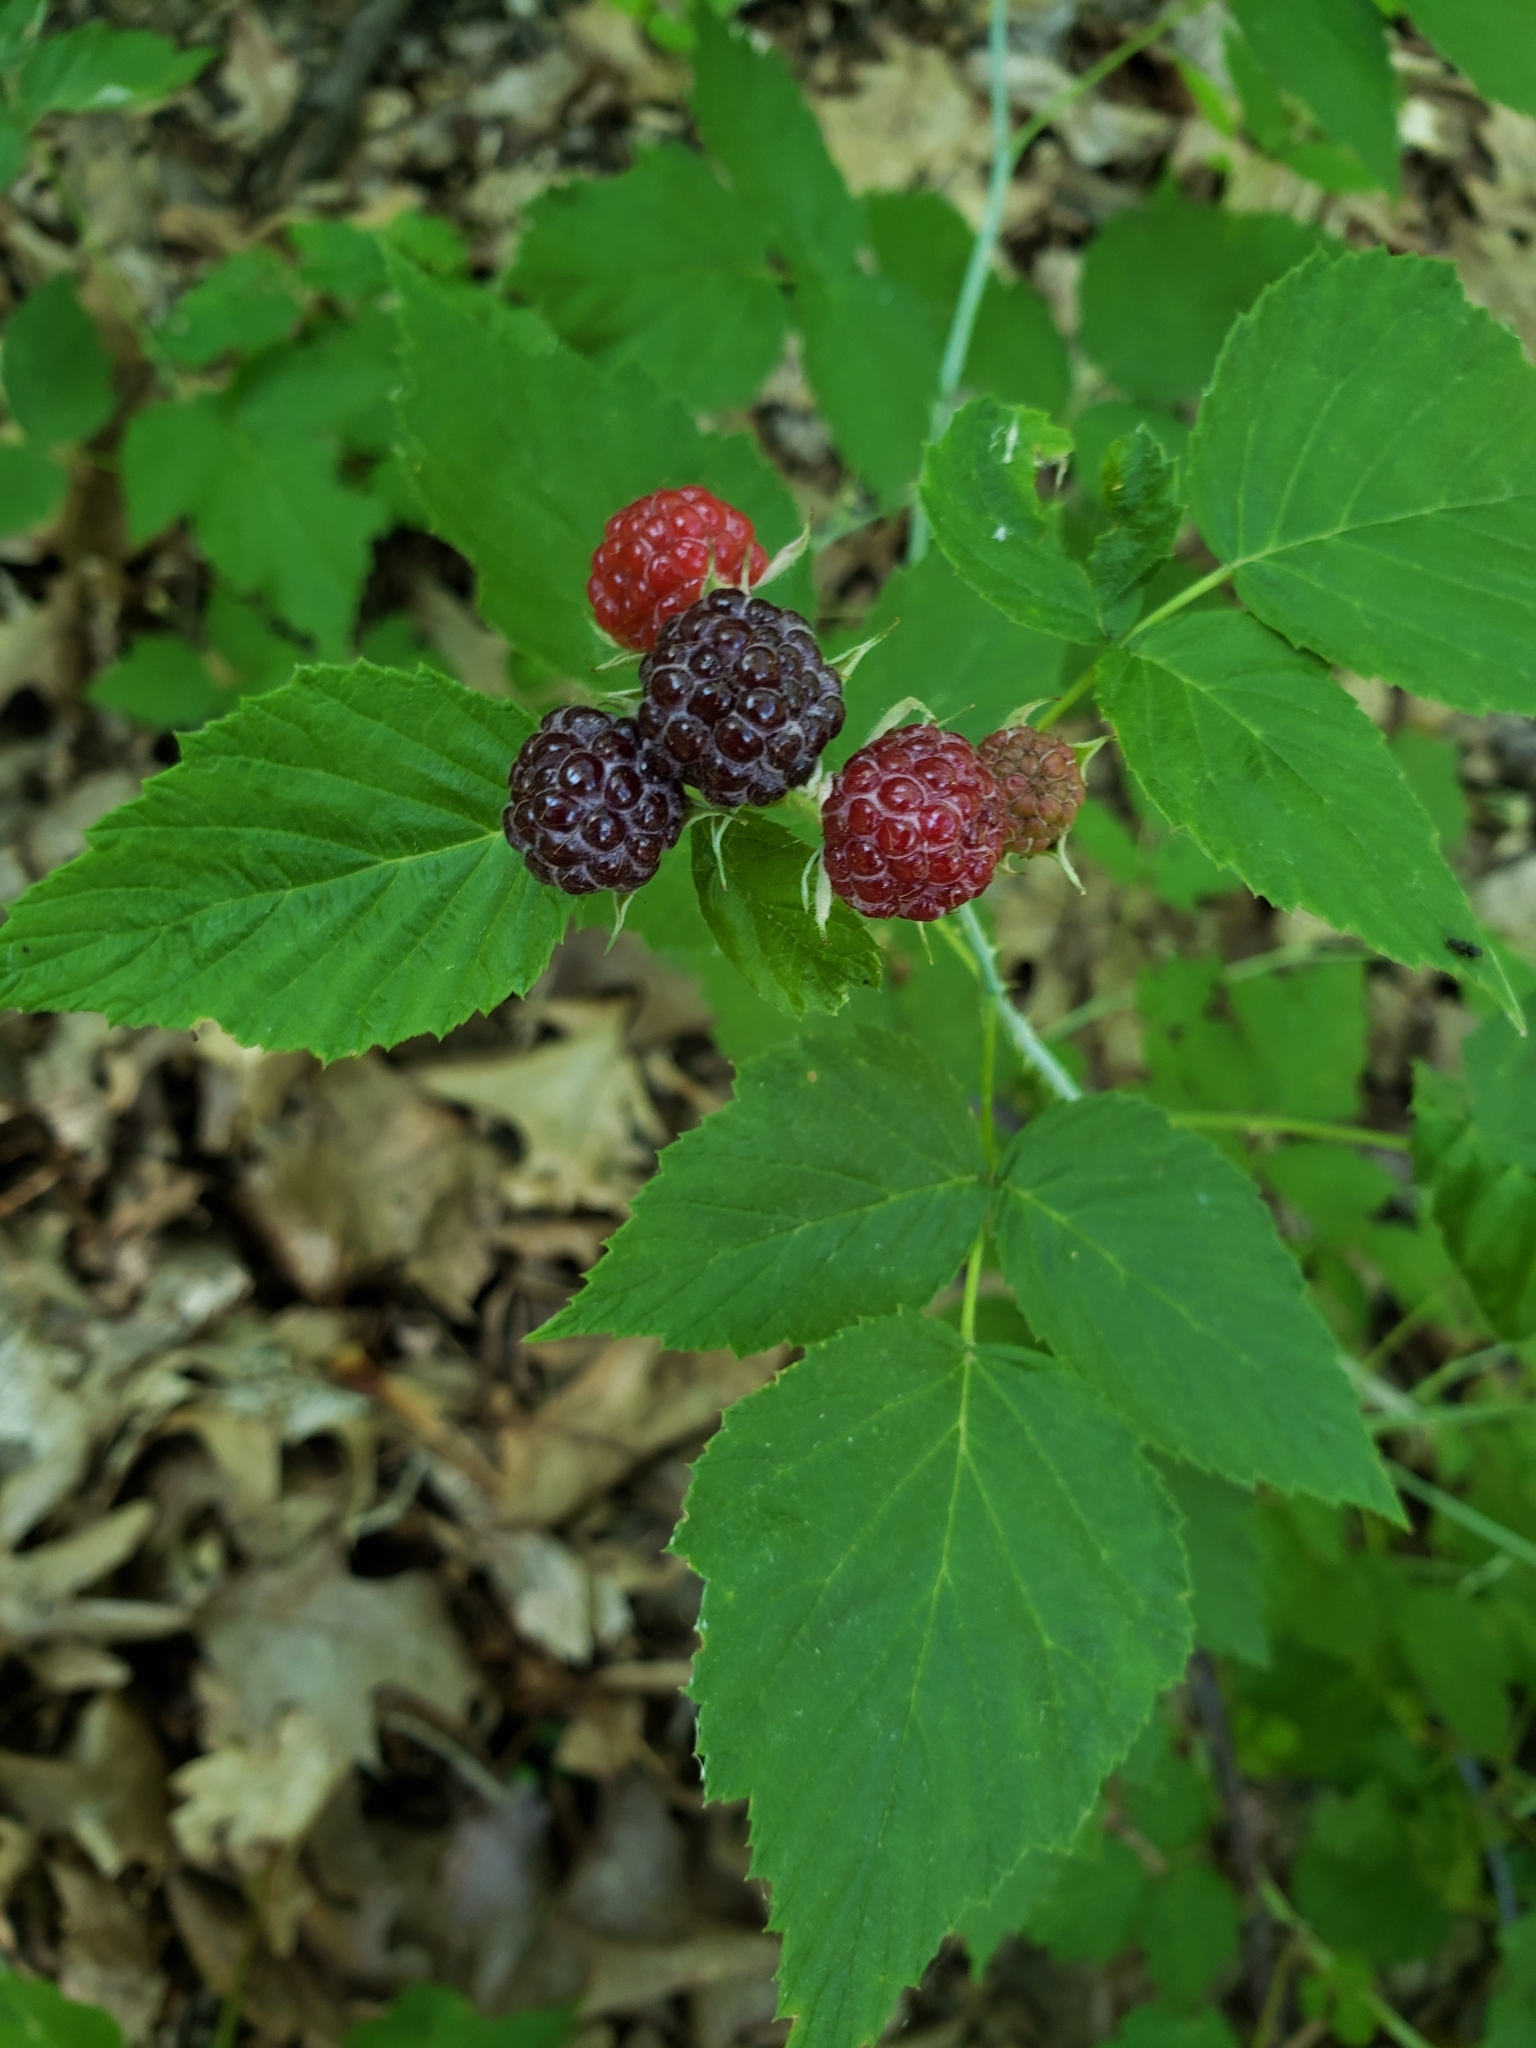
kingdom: Plantae
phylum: Tracheophyta
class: Magnoliopsida
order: Rosales
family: Rosaceae
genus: Rubus
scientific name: Rubus occidentalis
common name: Black raspberry
